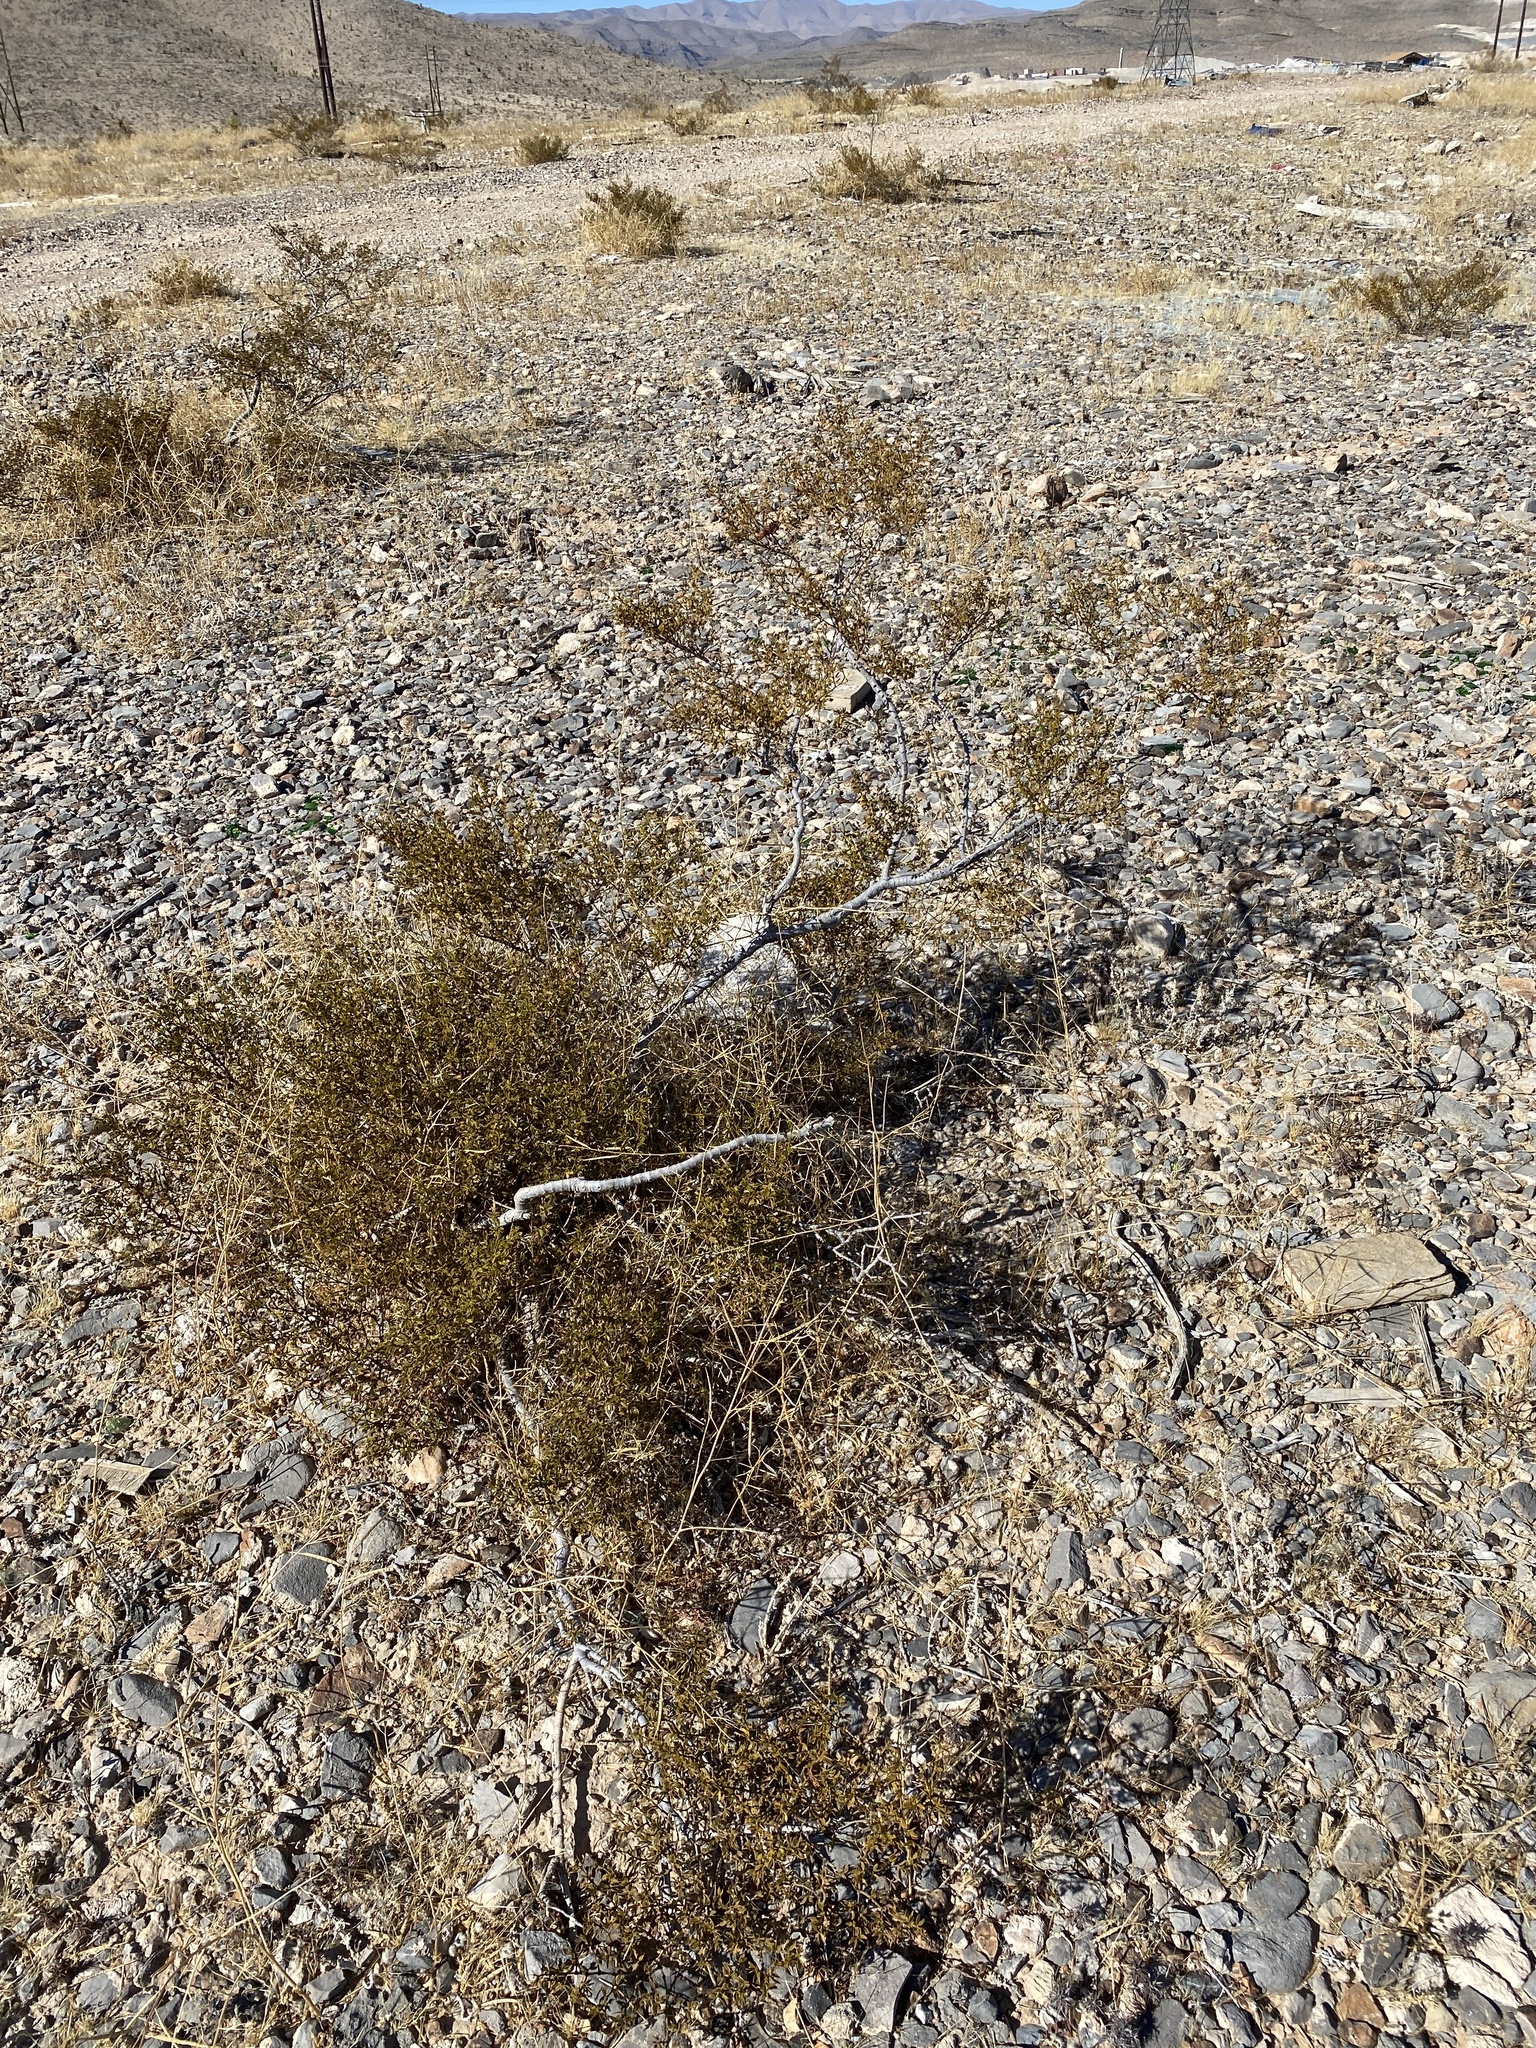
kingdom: Plantae
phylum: Tracheophyta
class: Magnoliopsida
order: Zygophyllales
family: Zygophyllaceae
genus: Larrea
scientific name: Larrea tridentata
